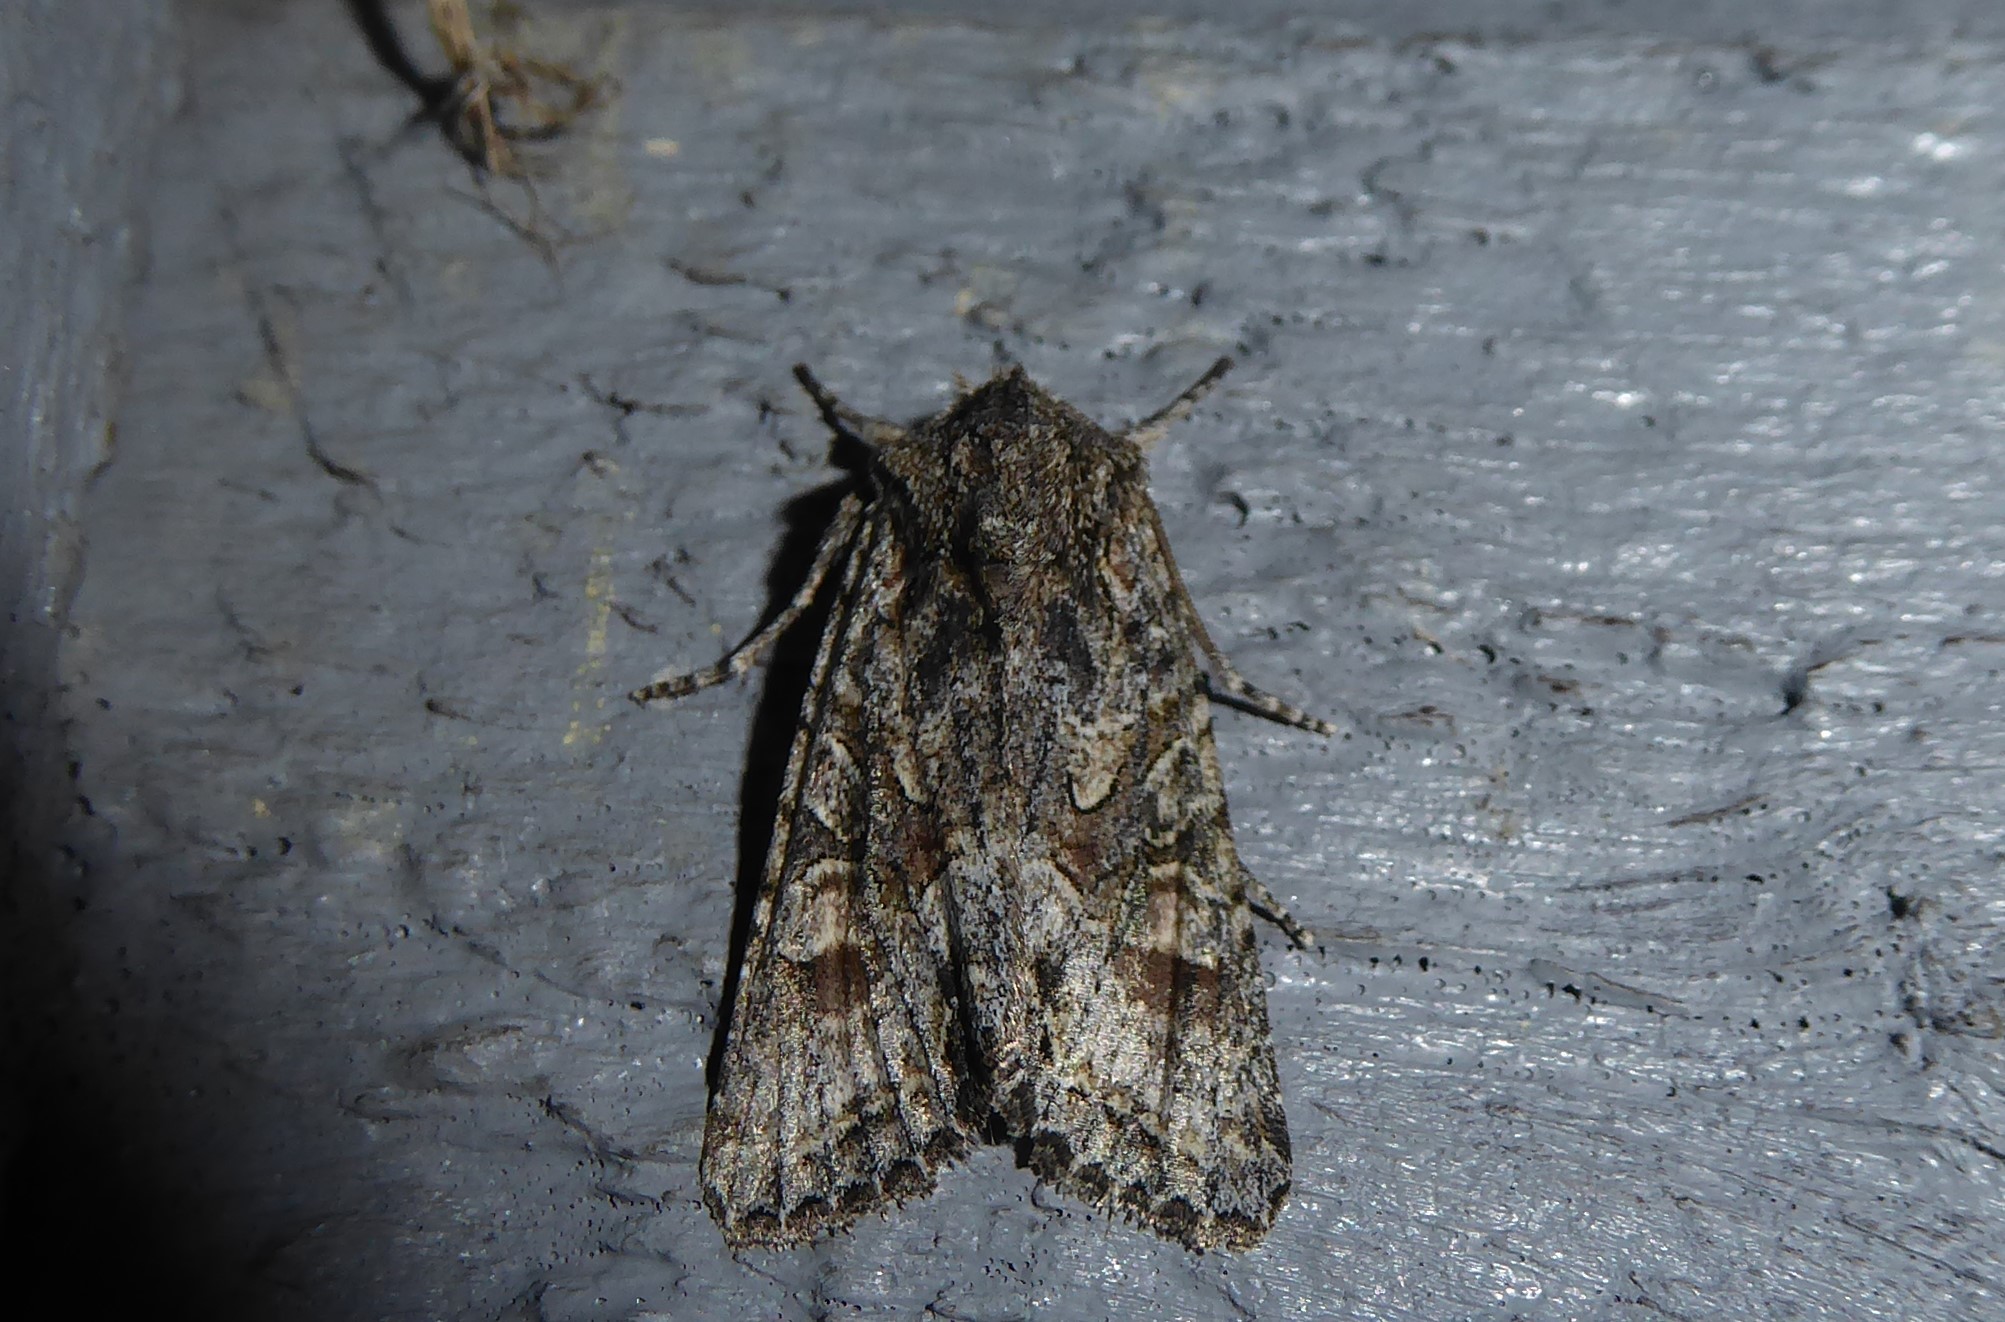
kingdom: Animalia
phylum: Arthropoda
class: Insecta
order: Lepidoptera
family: Noctuidae
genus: Ichneutica
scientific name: Ichneutica mutans
